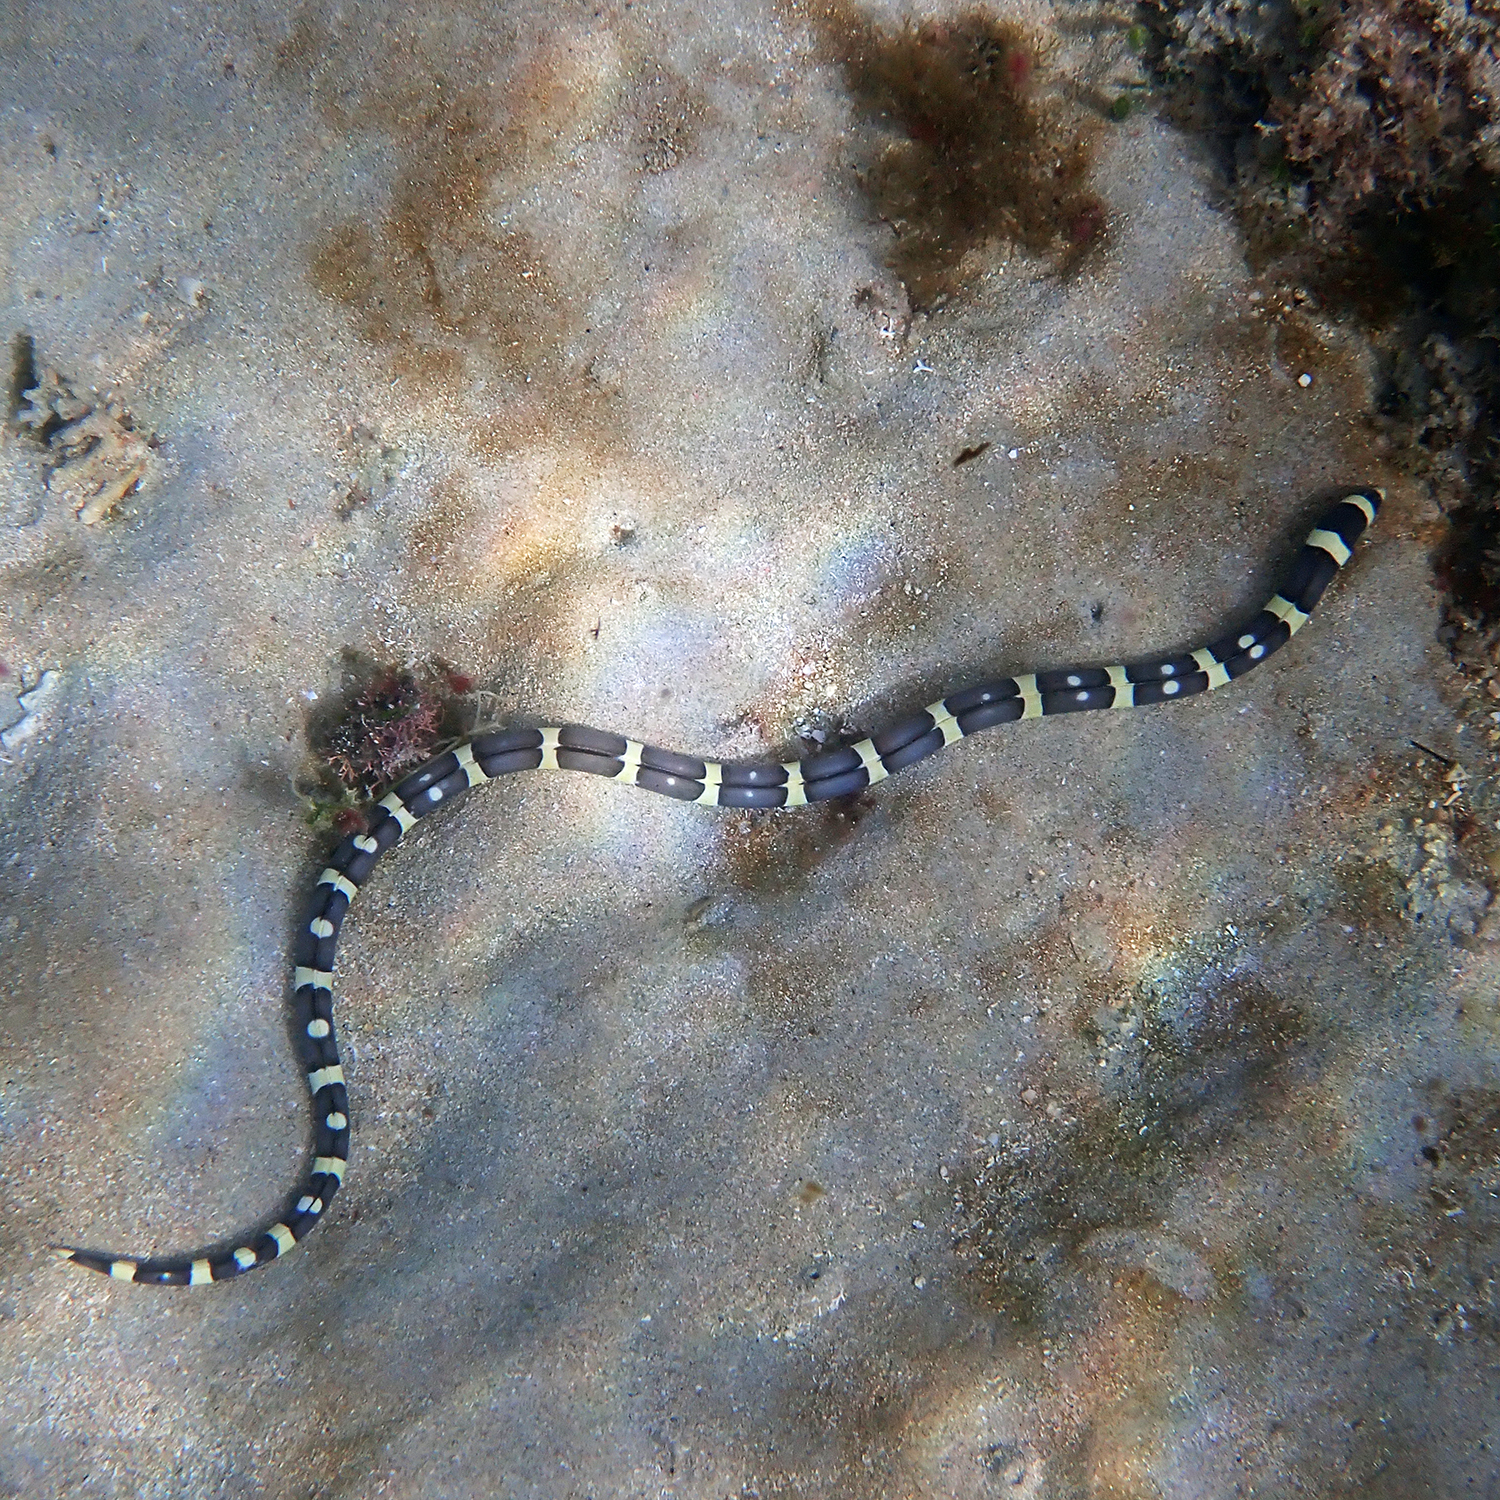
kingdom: Animalia
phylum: Chordata
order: Anguilliformes
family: Ophichthidae
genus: Leiuranus
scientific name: Leiuranus versicolor
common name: Convict snake eel
